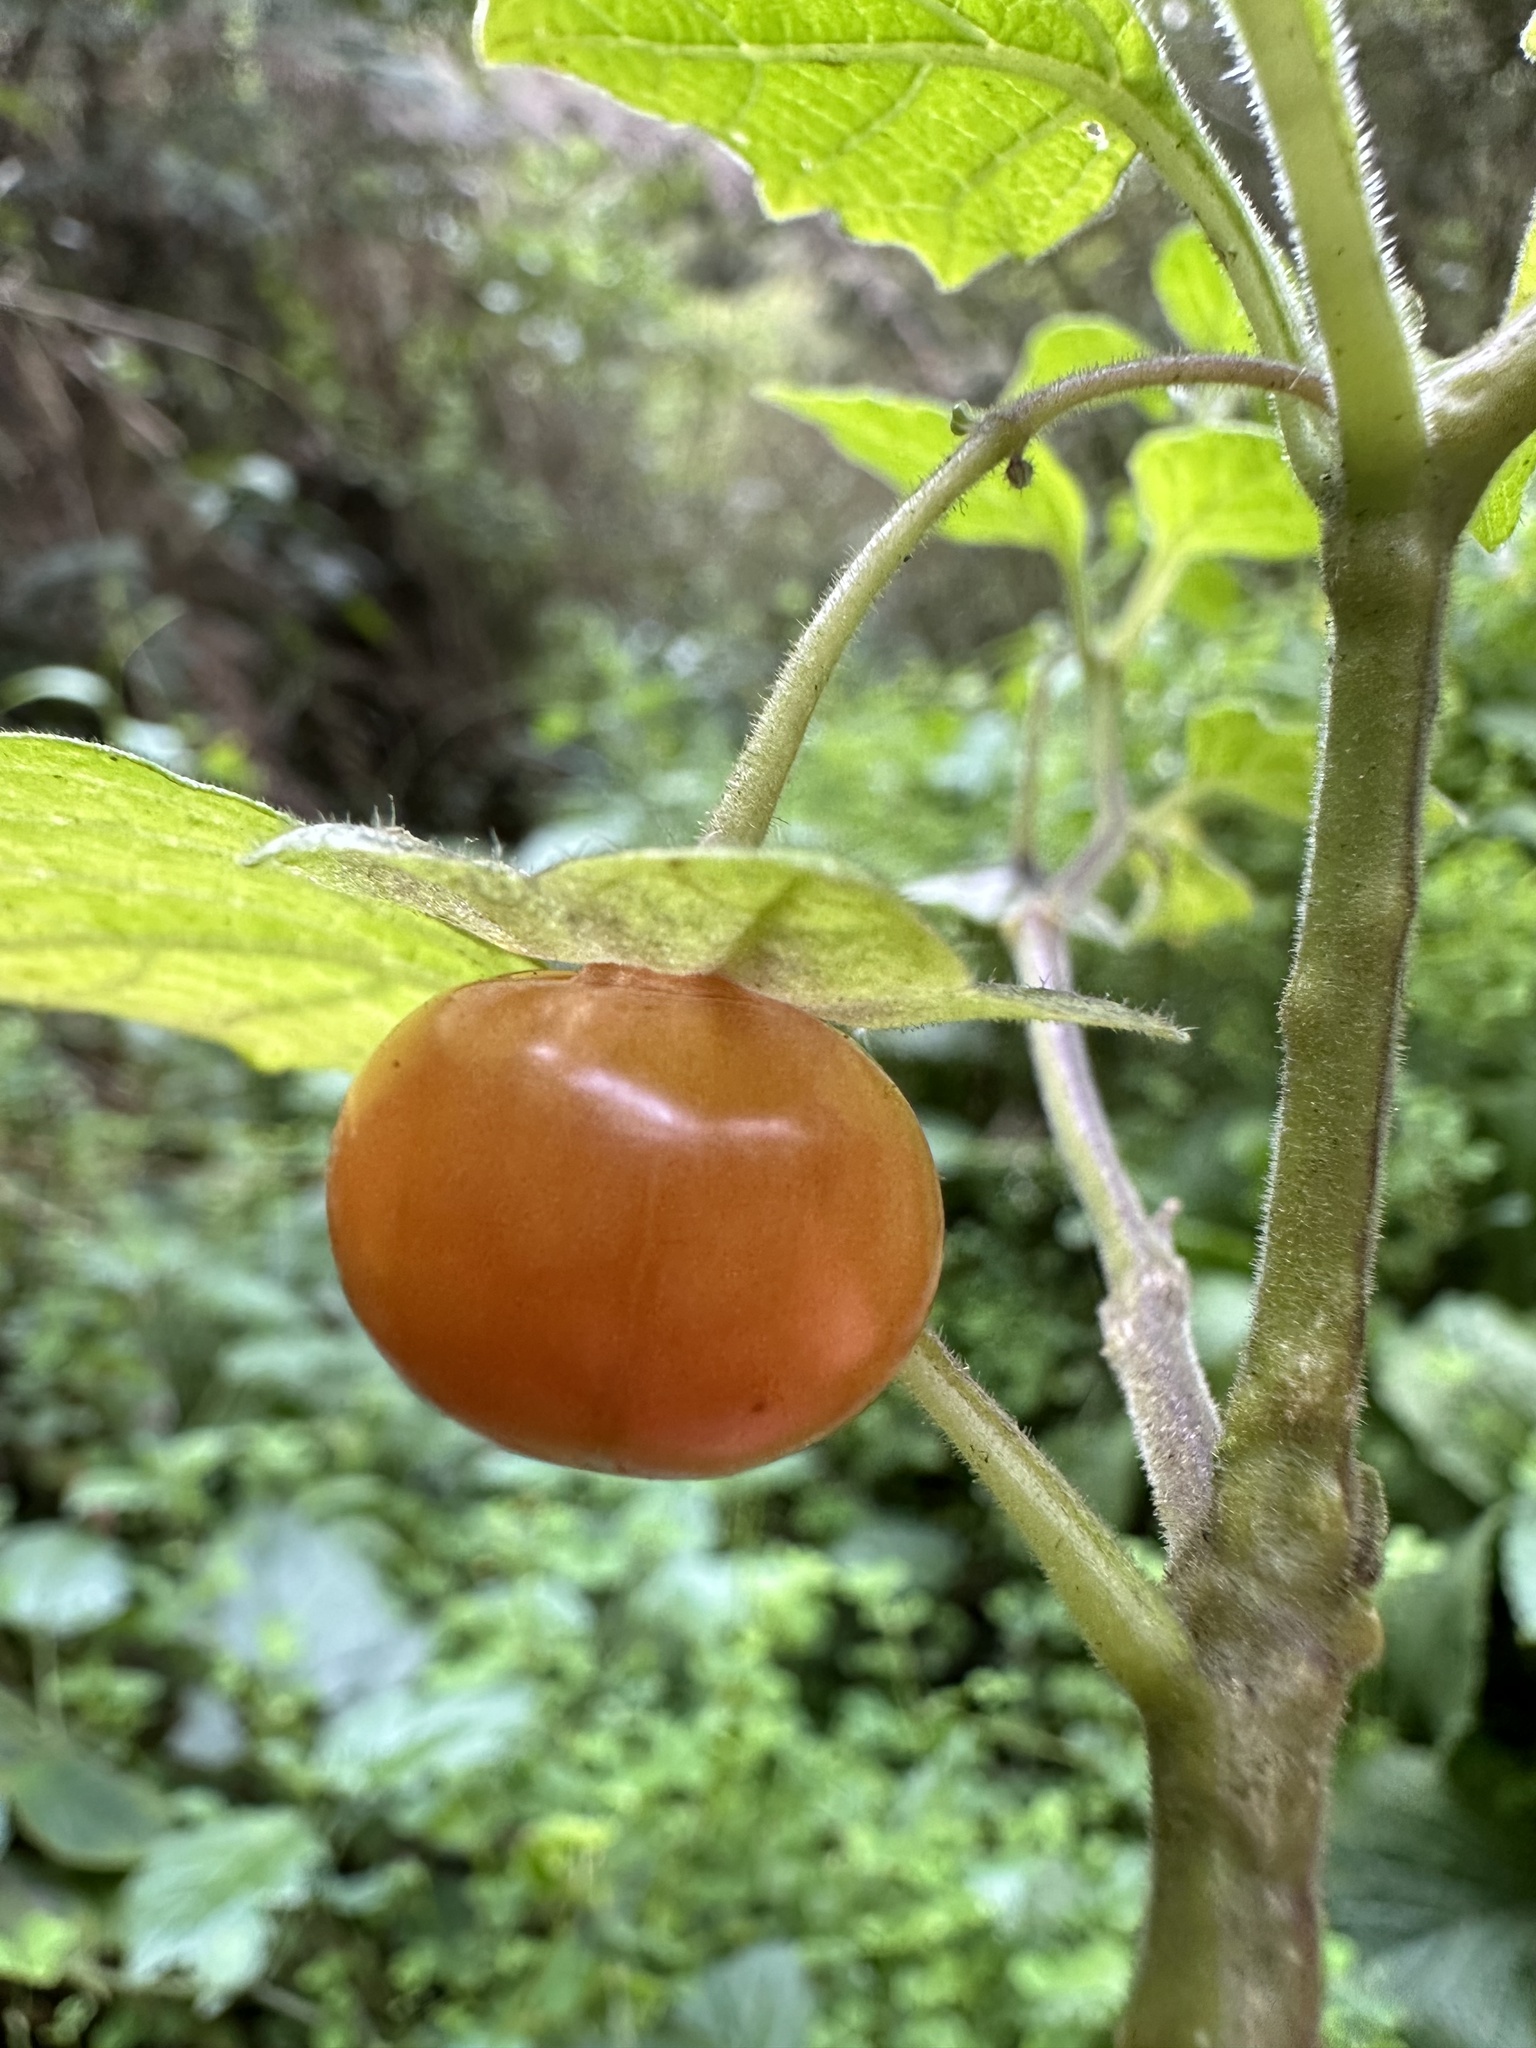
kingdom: Plantae
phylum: Tracheophyta
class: Magnoliopsida
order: Solanales
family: Solanaceae
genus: Jaltomata
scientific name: Jaltomata viridiflora
